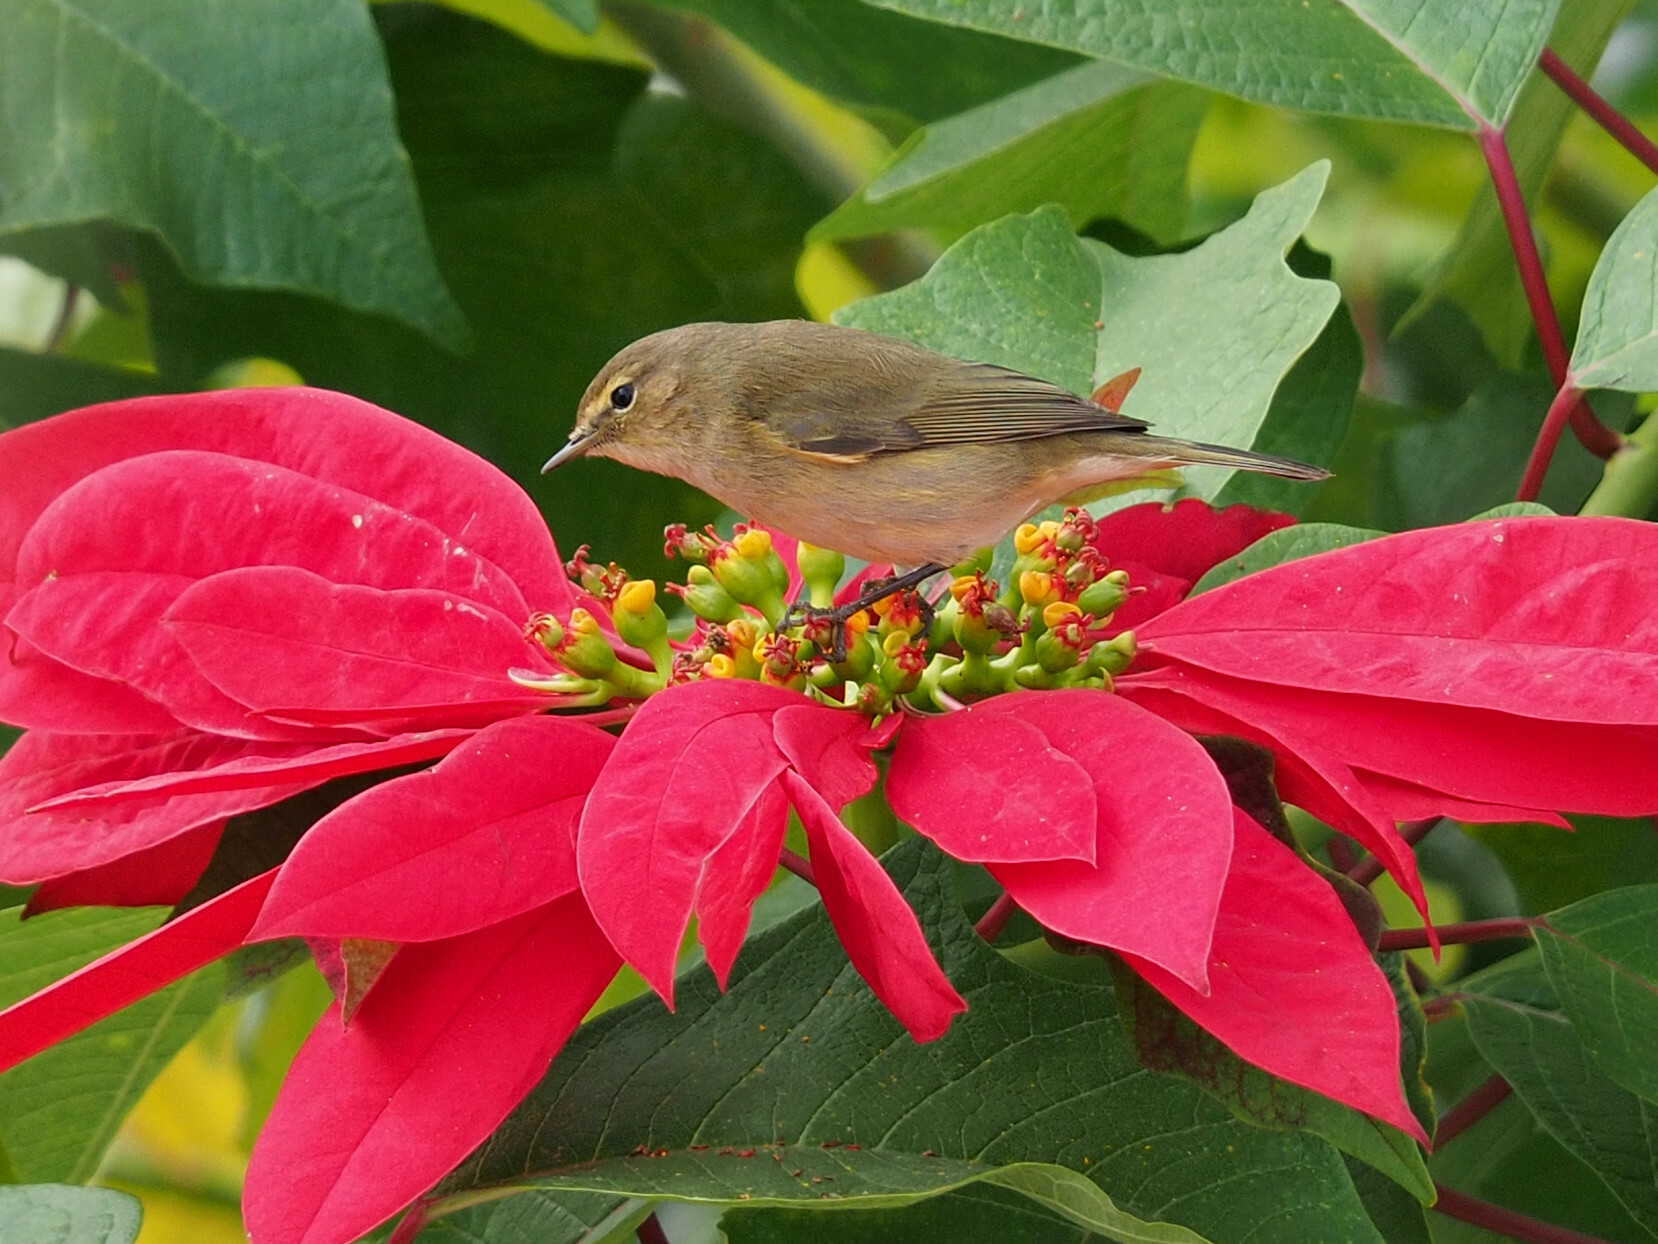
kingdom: Animalia
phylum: Chordata
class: Aves
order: Passeriformes
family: Phylloscopidae
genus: Phylloscopus
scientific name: Phylloscopus collybita
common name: Common chiffchaff
